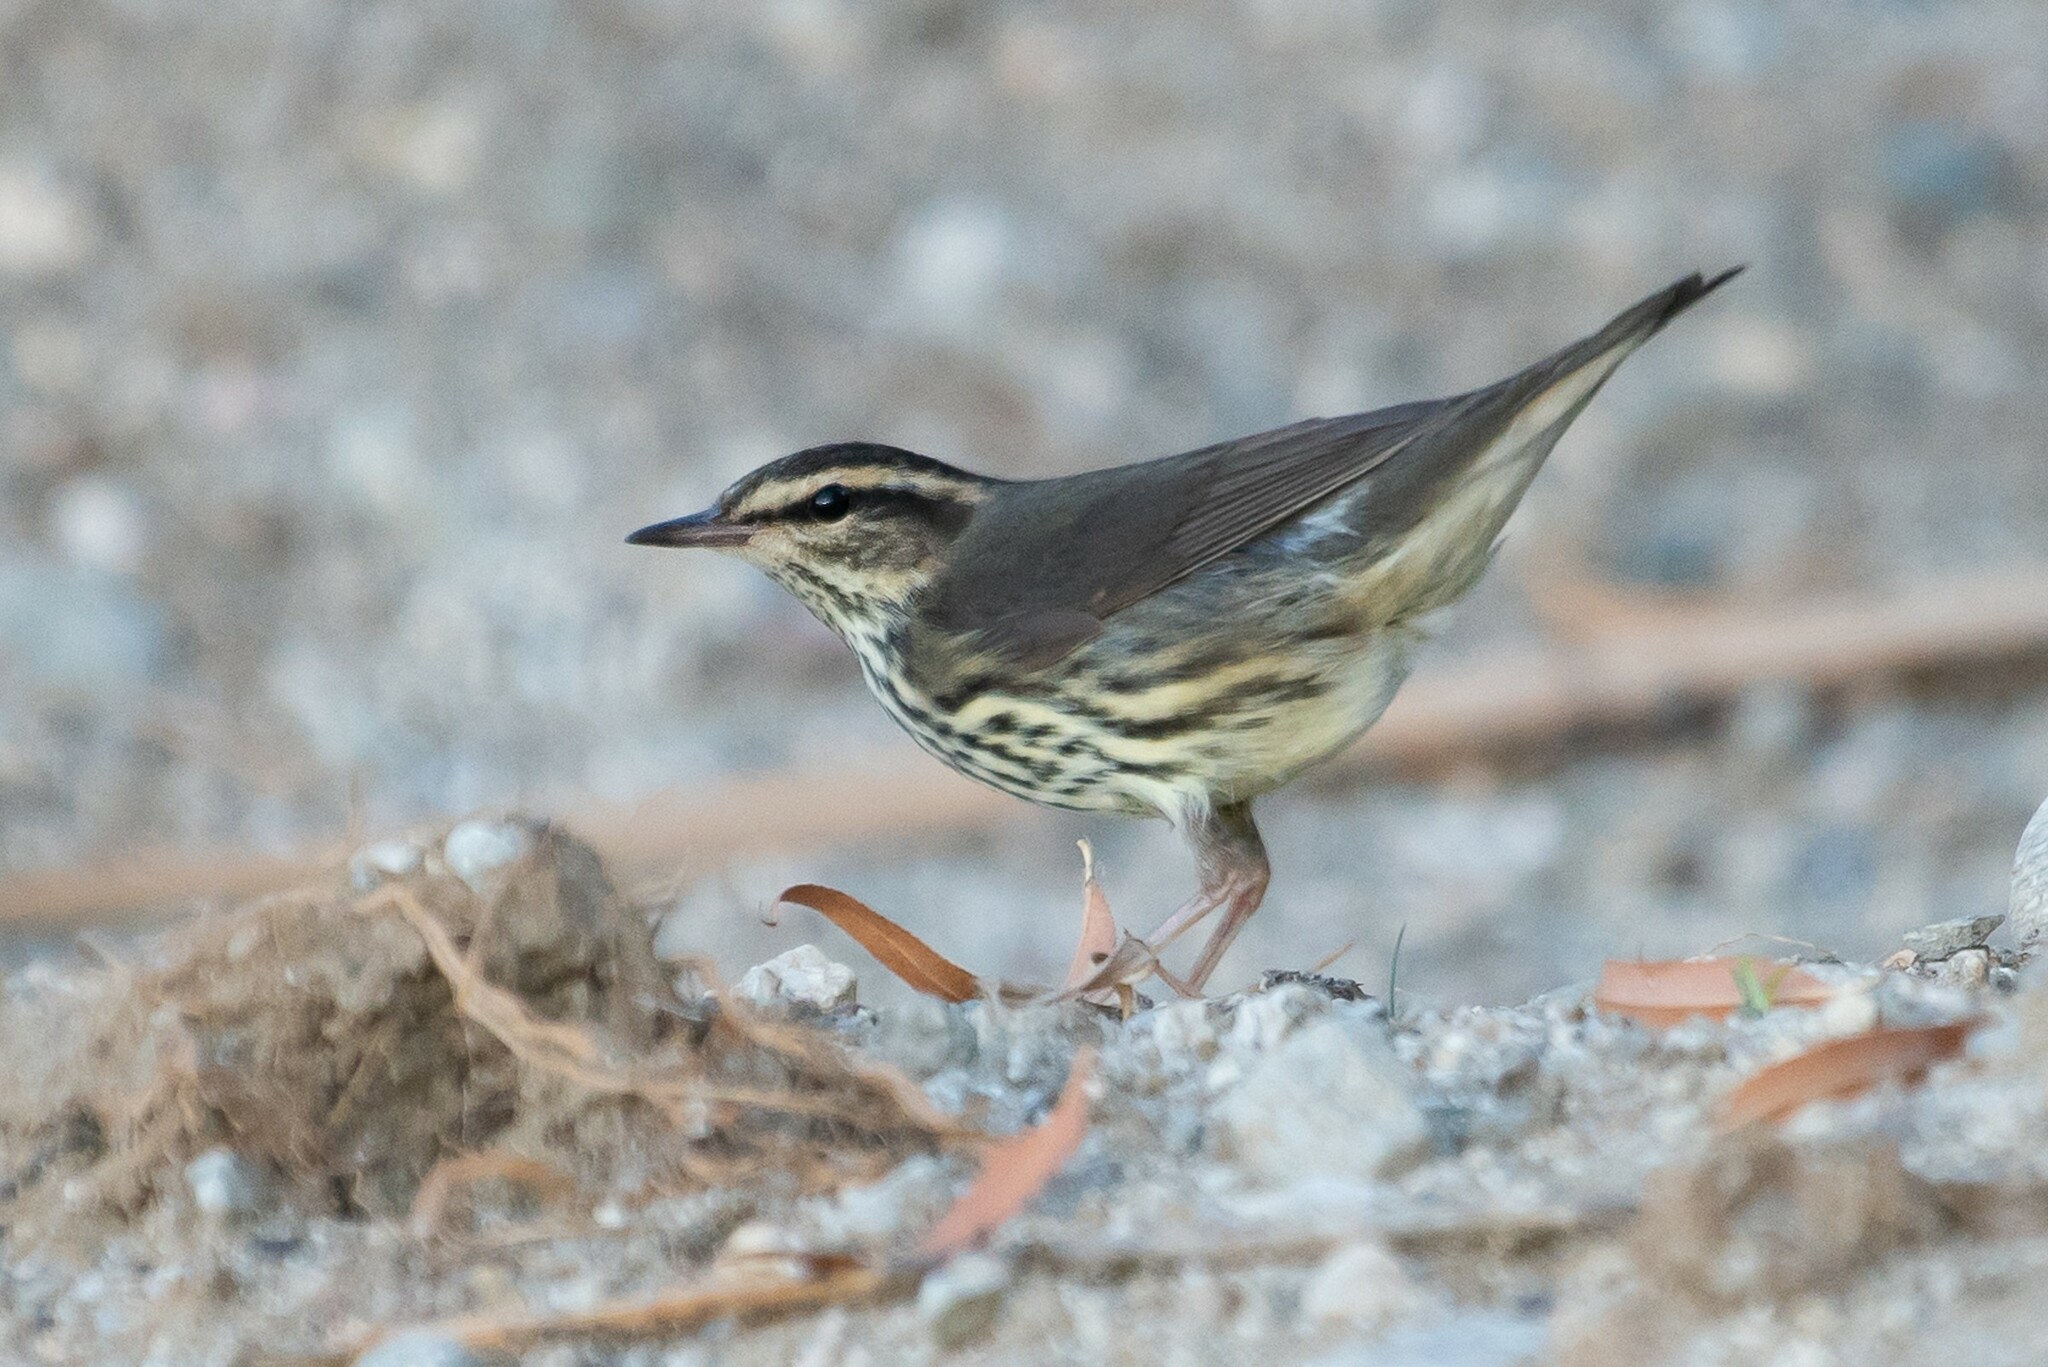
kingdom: Animalia
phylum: Chordata
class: Aves
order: Passeriformes
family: Parulidae
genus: Parkesia
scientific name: Parkesia noveboracensis
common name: Northern waterthrush
